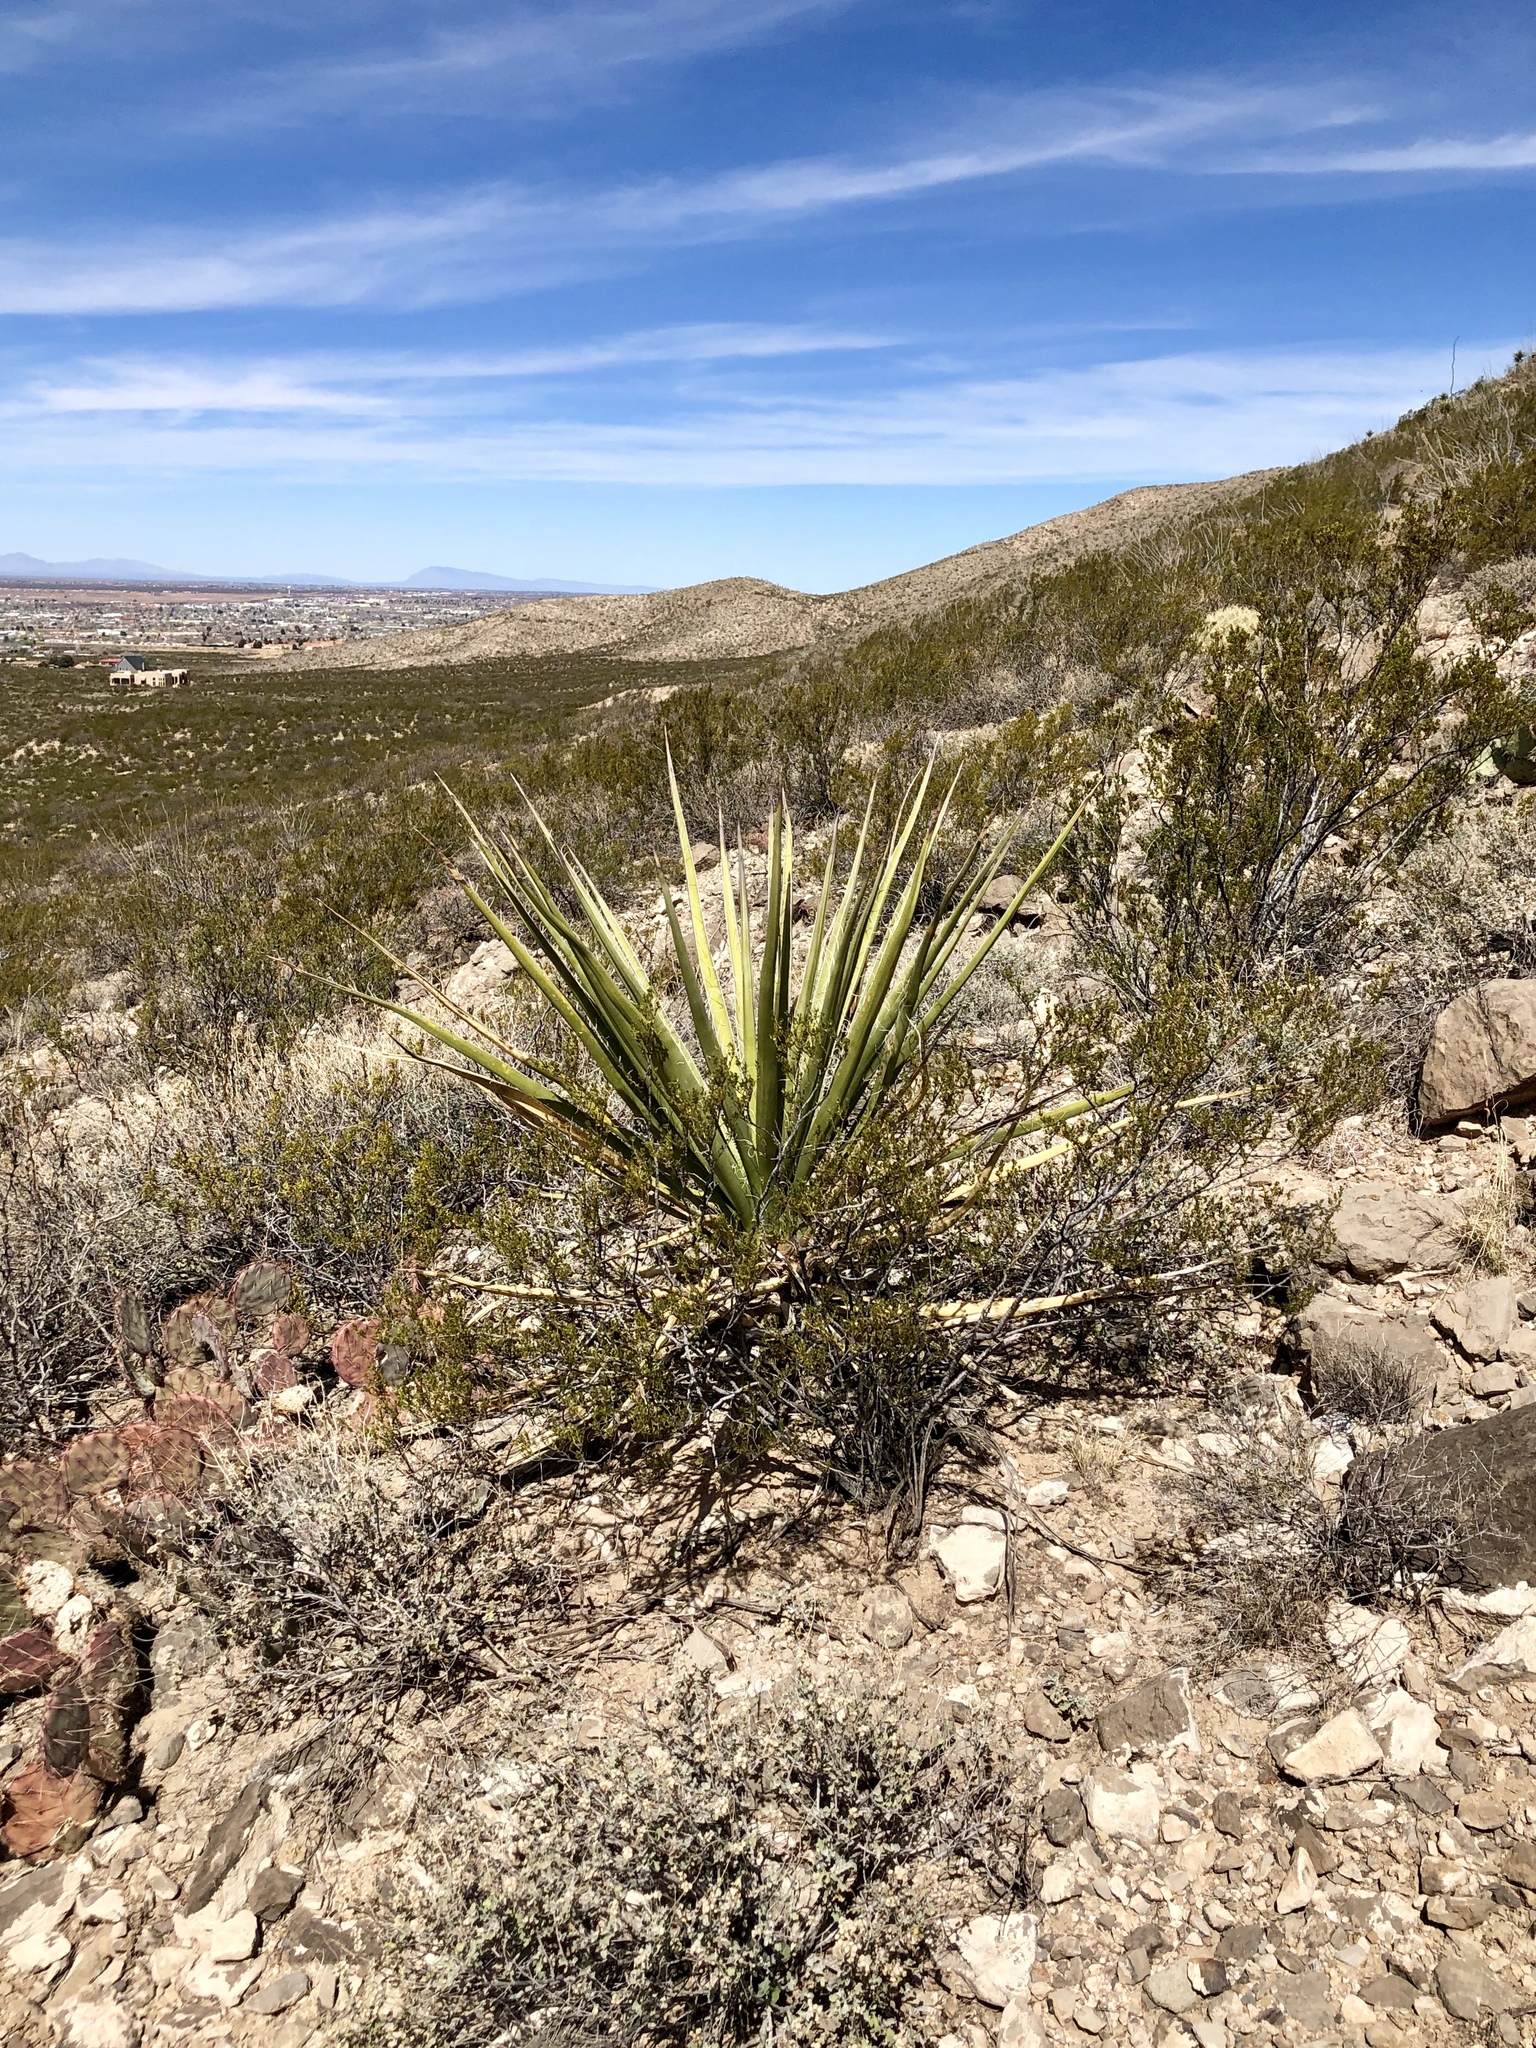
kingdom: Plantae
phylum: Tracheophyta
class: Liliopsida
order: Asparagales
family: Asparagaceae
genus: Yucca
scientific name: Yucca treculiana
